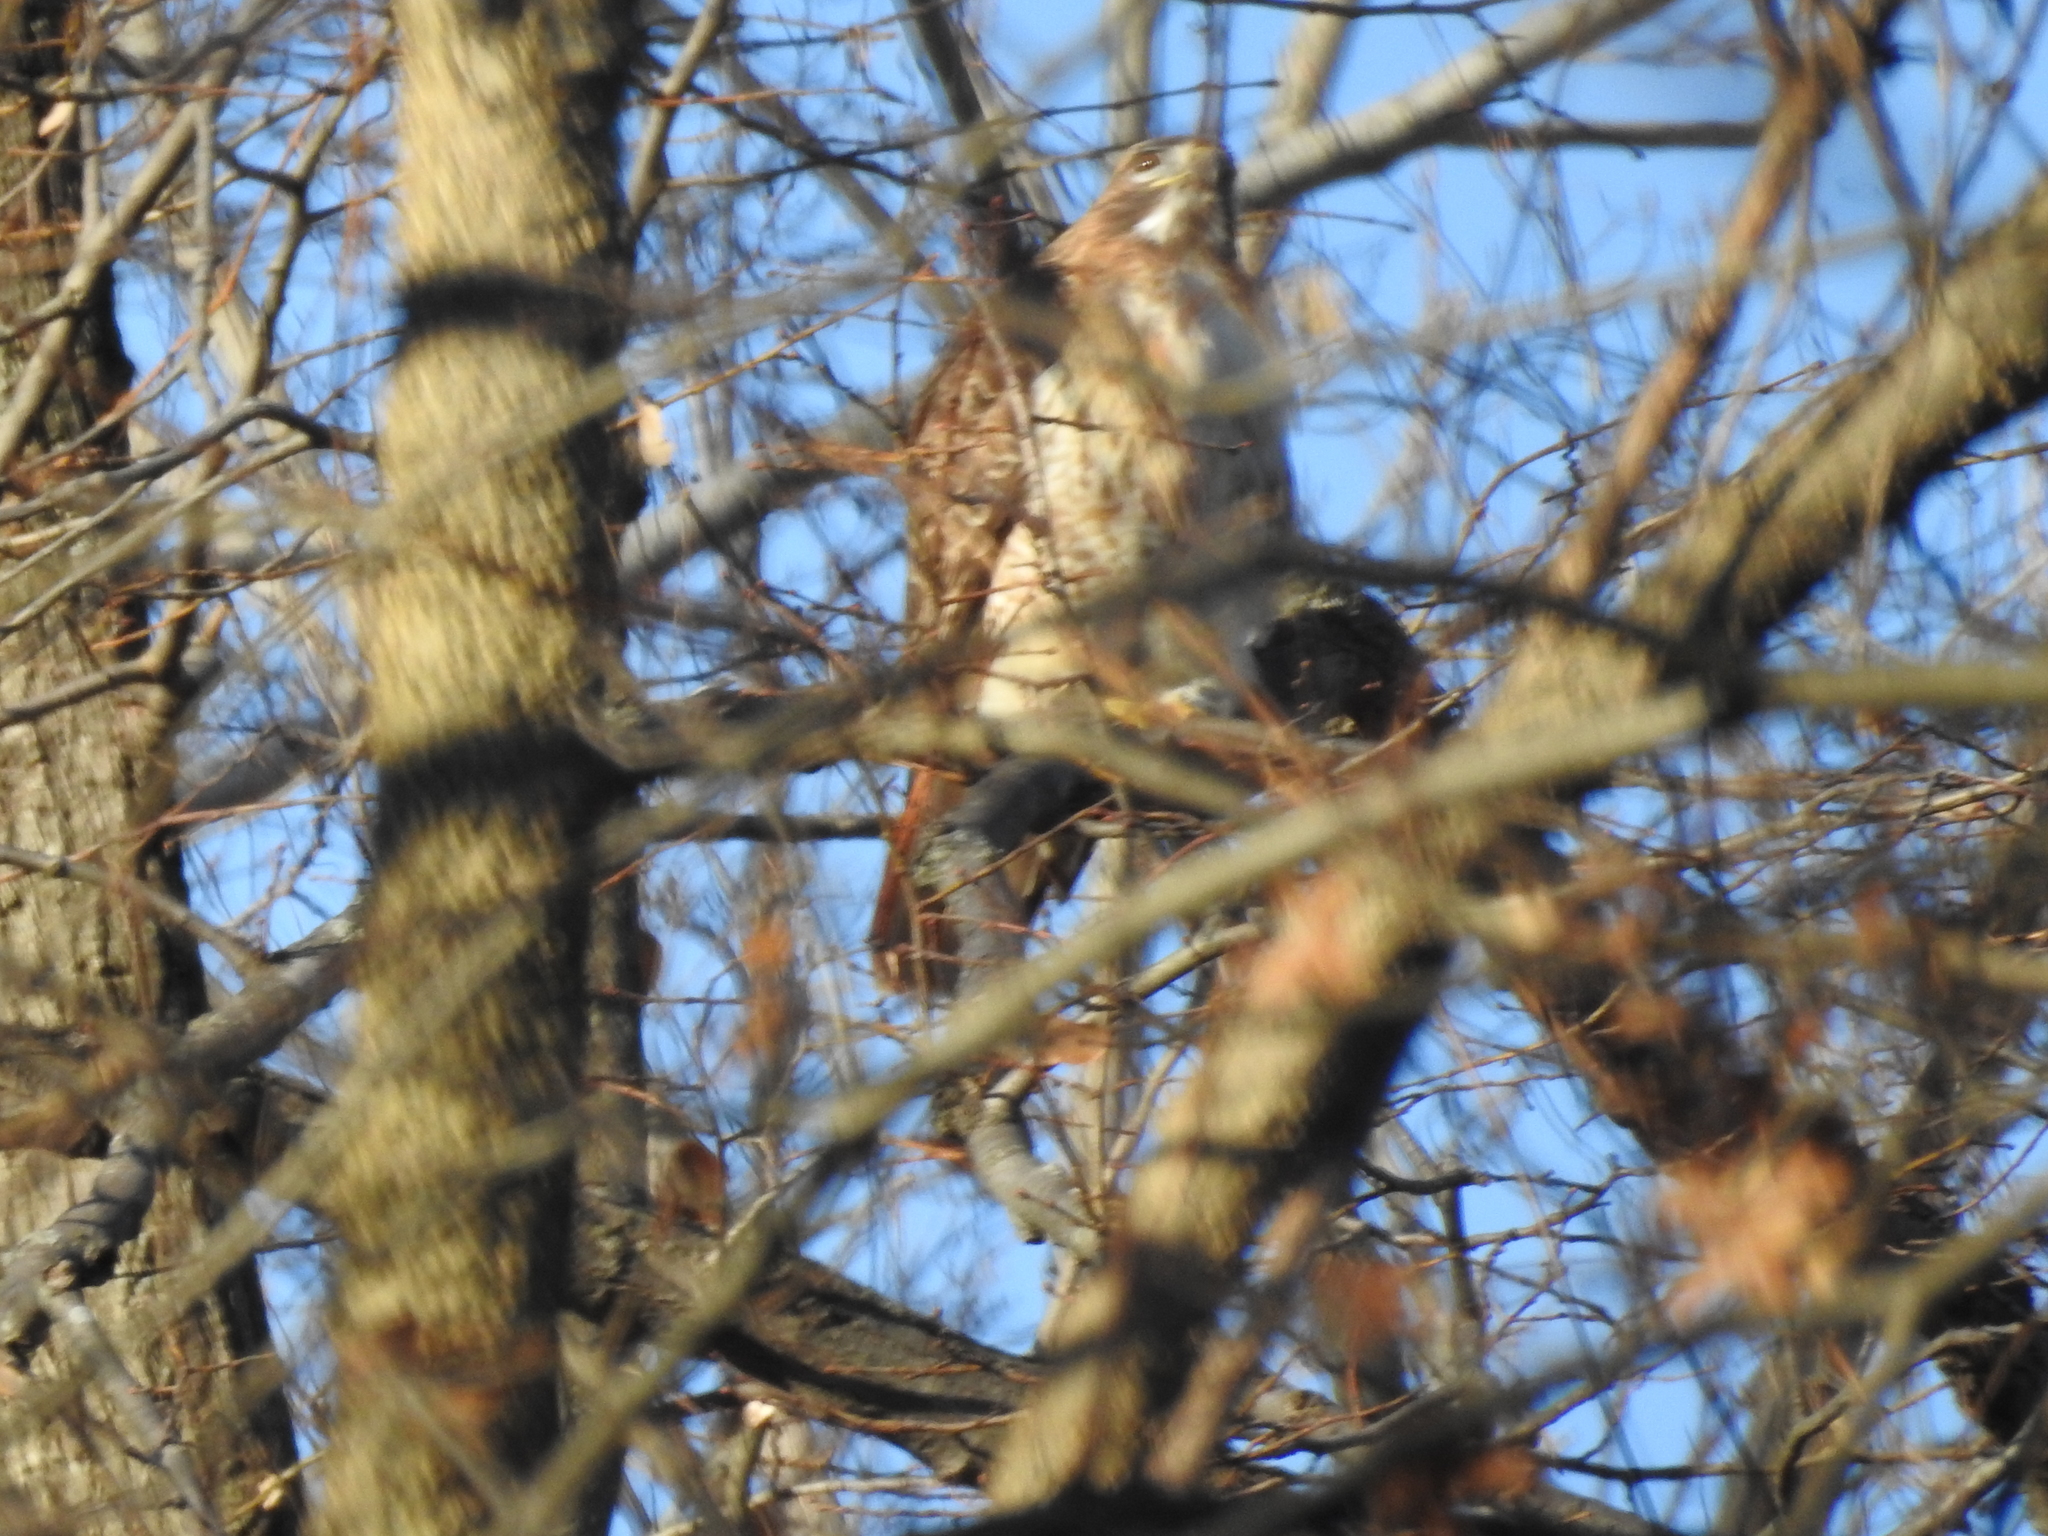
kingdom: Animalia
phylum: Chordata
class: Aves
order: Accipitriformes
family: Accipitridae
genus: Buteo
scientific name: Buteo jamaicensis
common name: Red-tailed hawk
